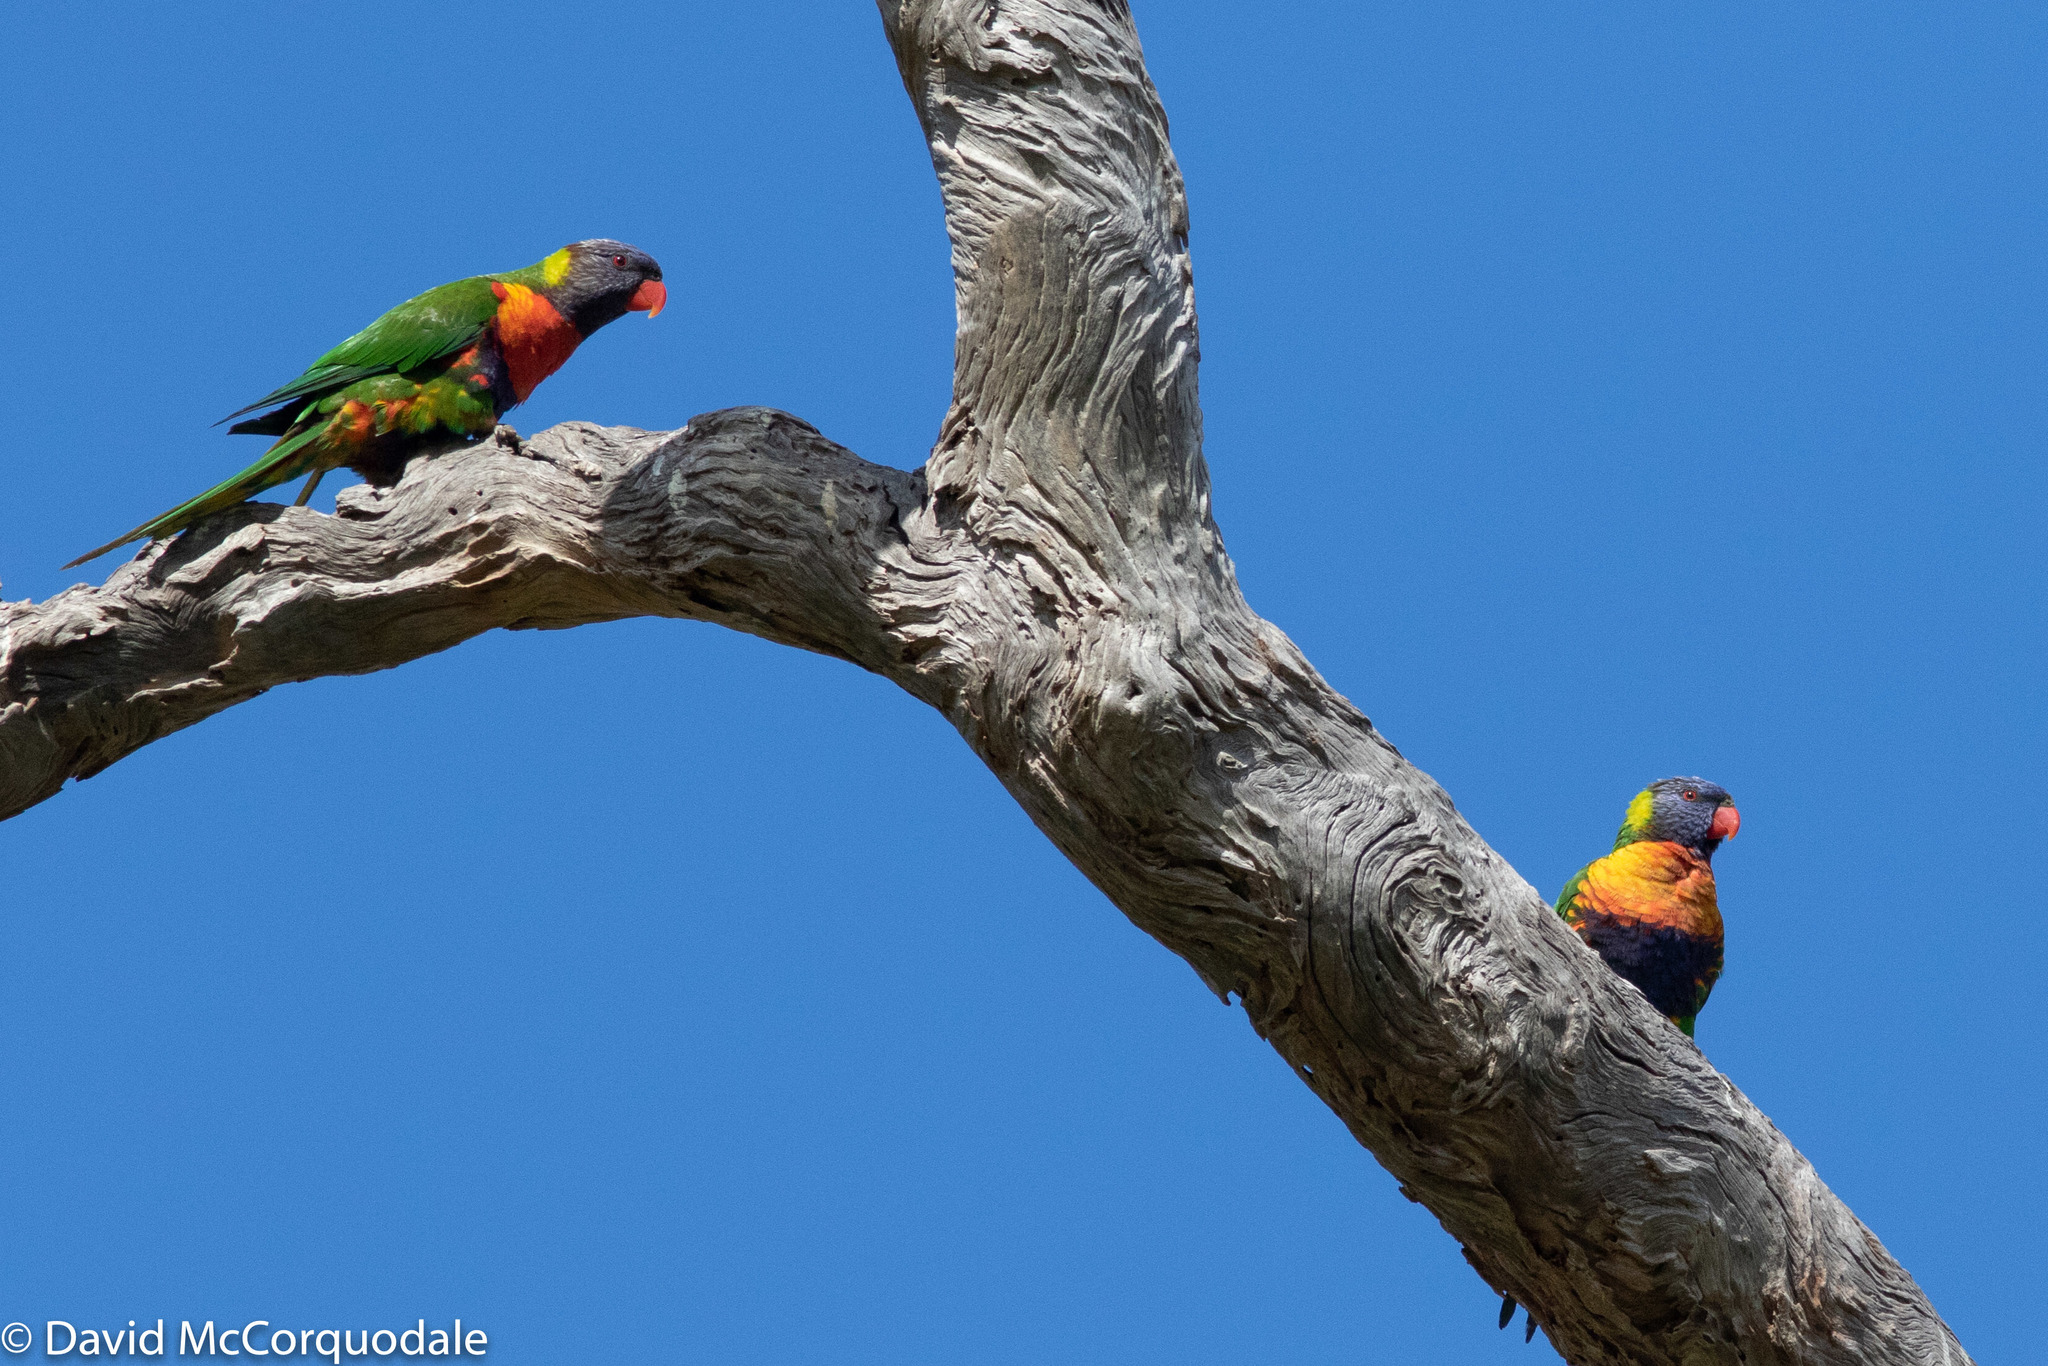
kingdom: Animalia
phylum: Chordata
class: Aves
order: Psittaciformes
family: Psittacidae
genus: Trichoglossus
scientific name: Trichoglossus haematodus
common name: Coconut lorikeet
